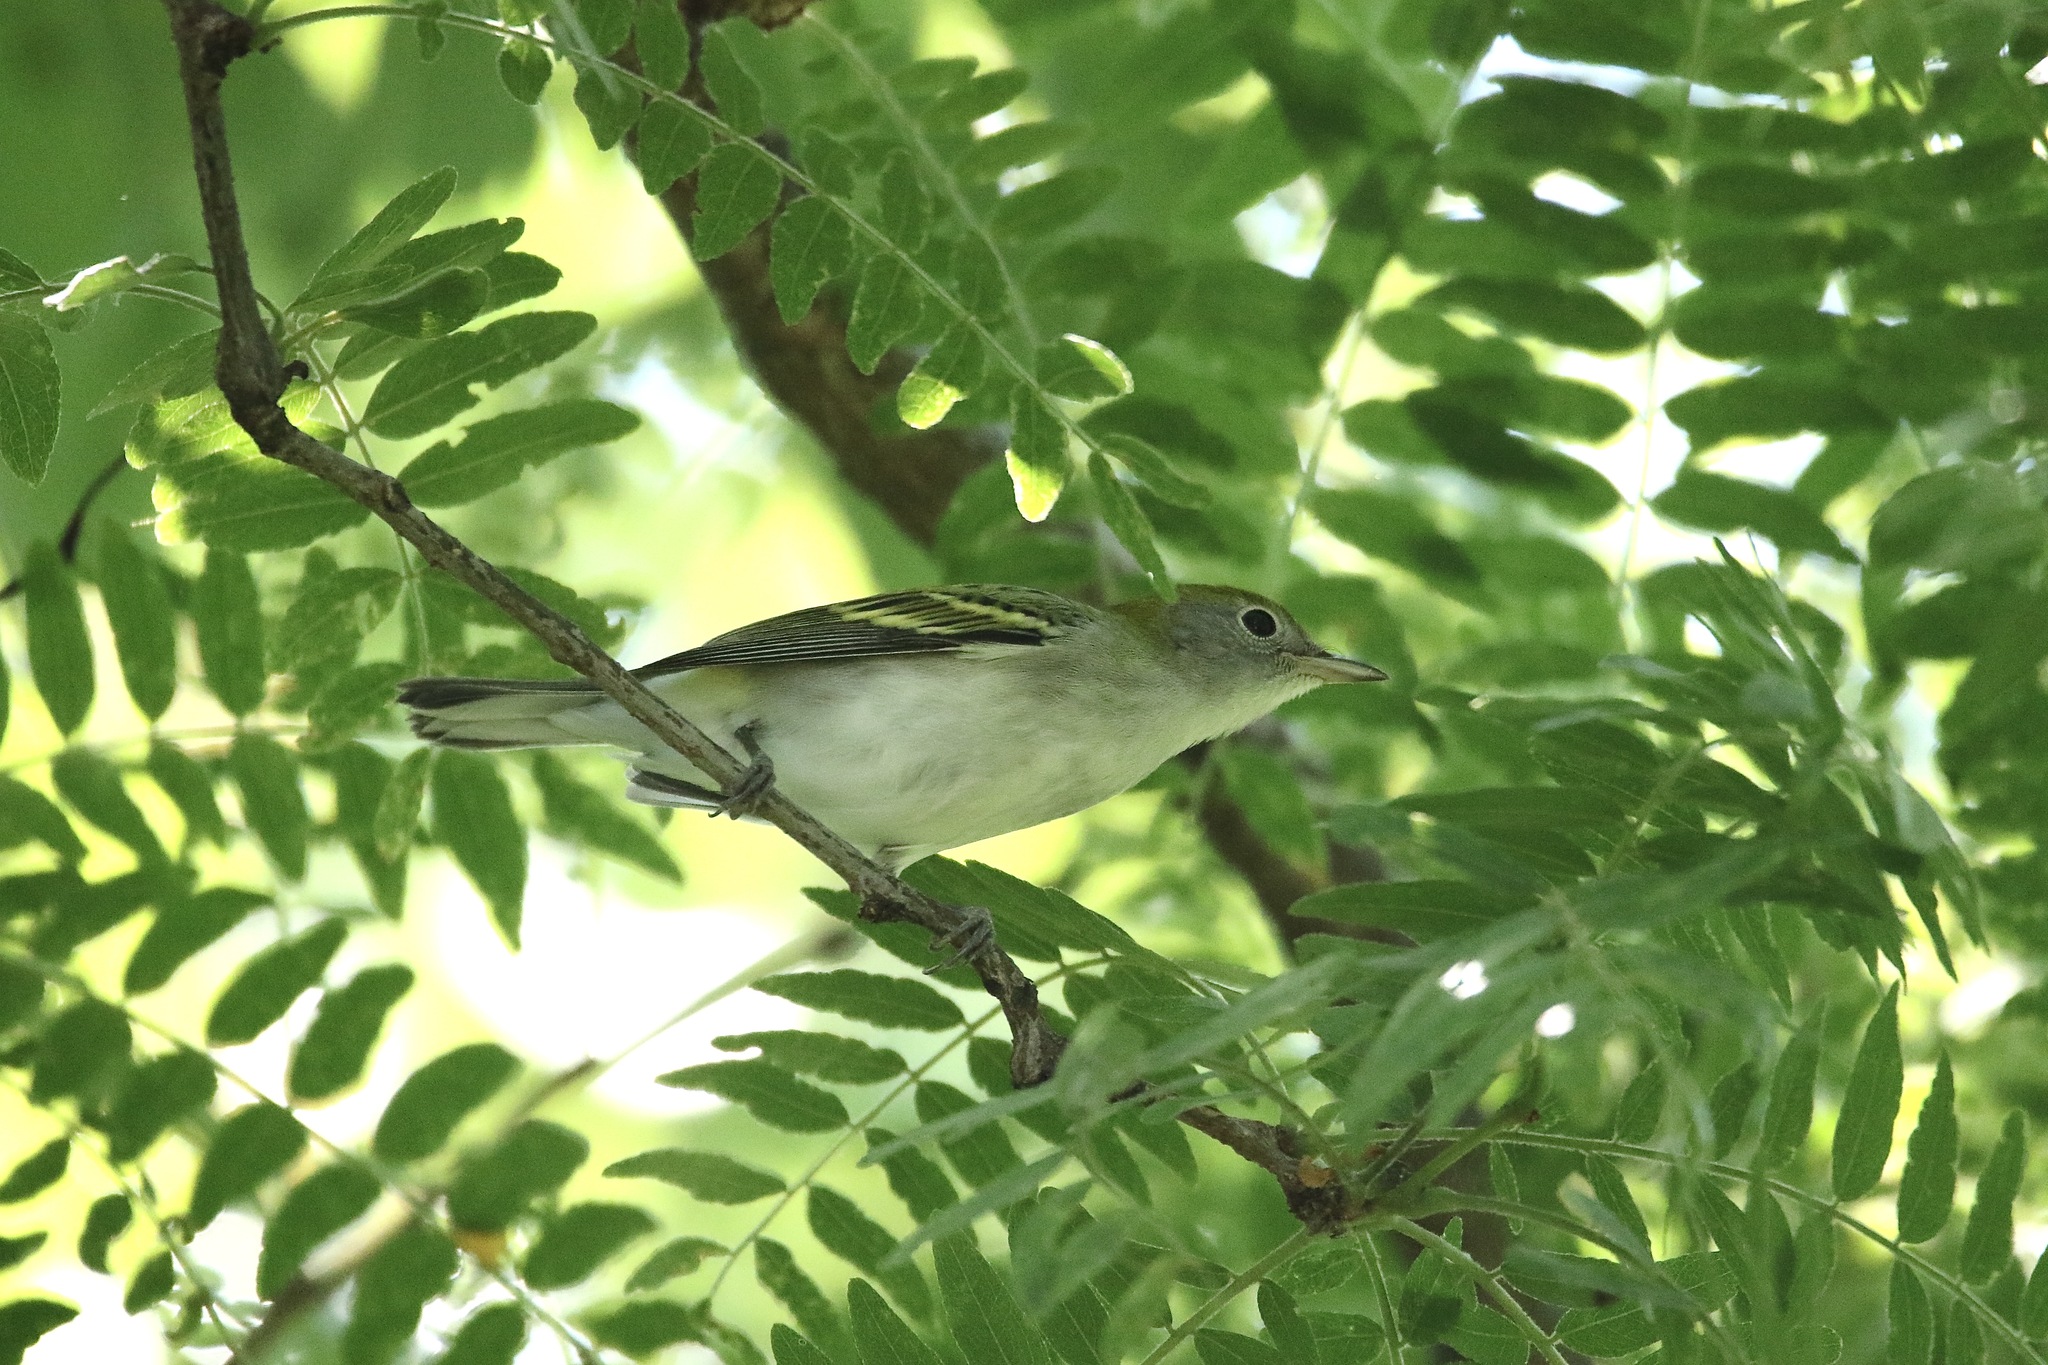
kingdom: Animalia
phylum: Chordata
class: Aves
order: Passeriformes
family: Parulidae
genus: Setophaga
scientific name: Setophaga pensylvanica
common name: Chestnut-sided warbler
